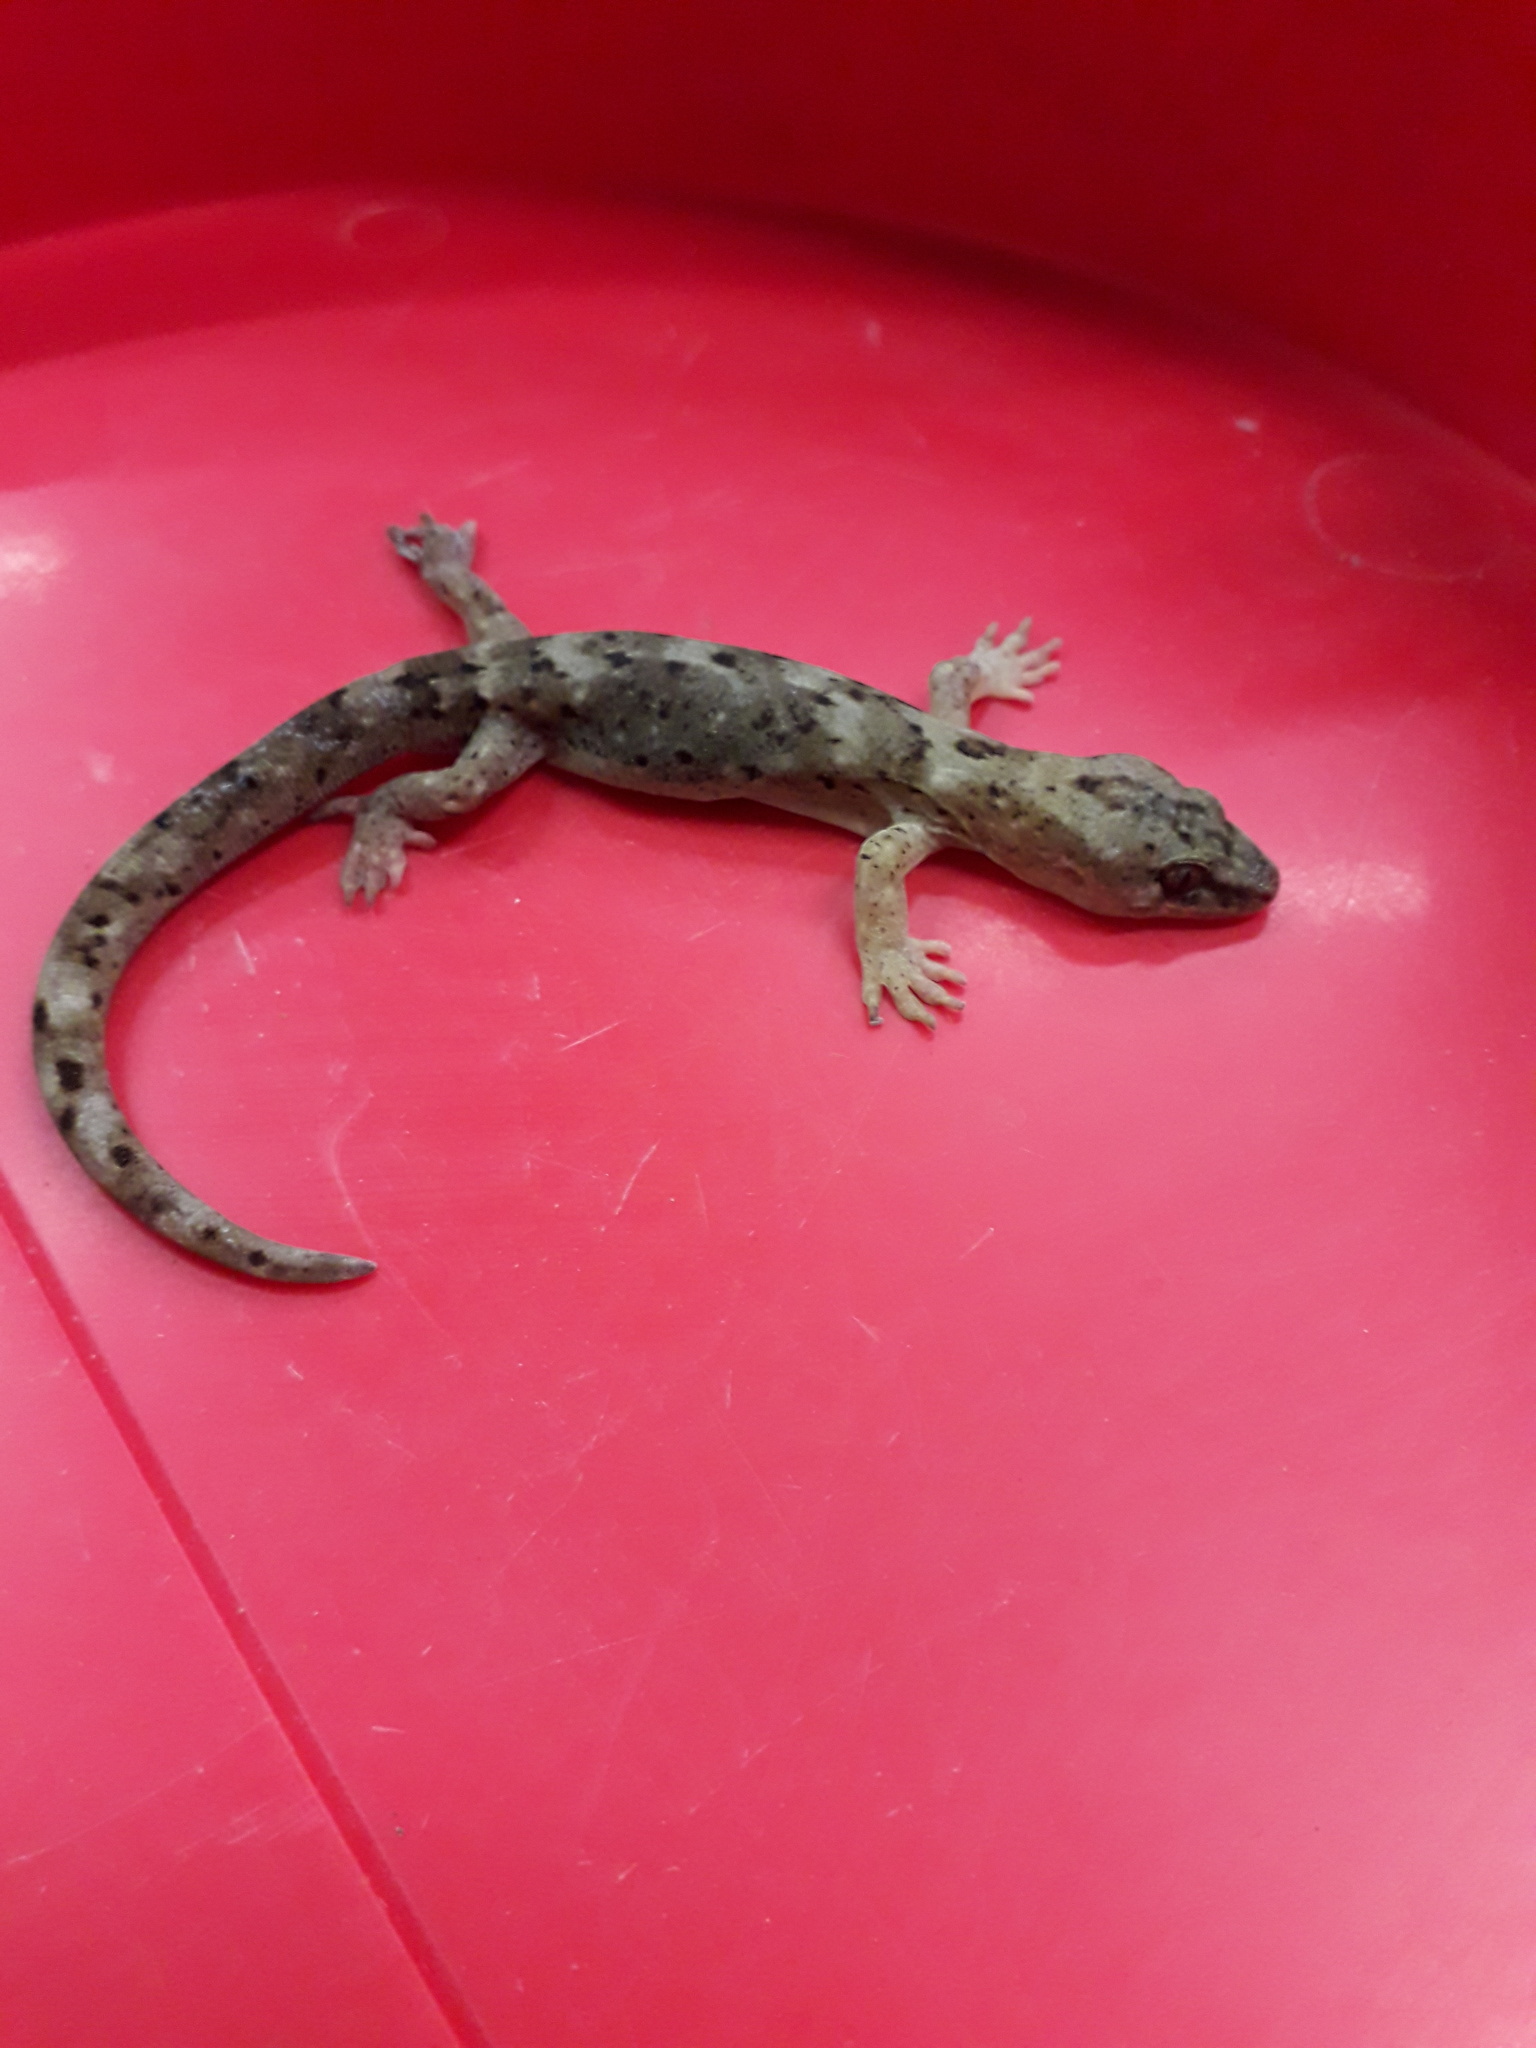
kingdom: Animalia
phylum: Chordata
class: Squamata
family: Diplodactylidae
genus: Woodworthia
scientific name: Woodworthia maculata
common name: Raukawa gecko
